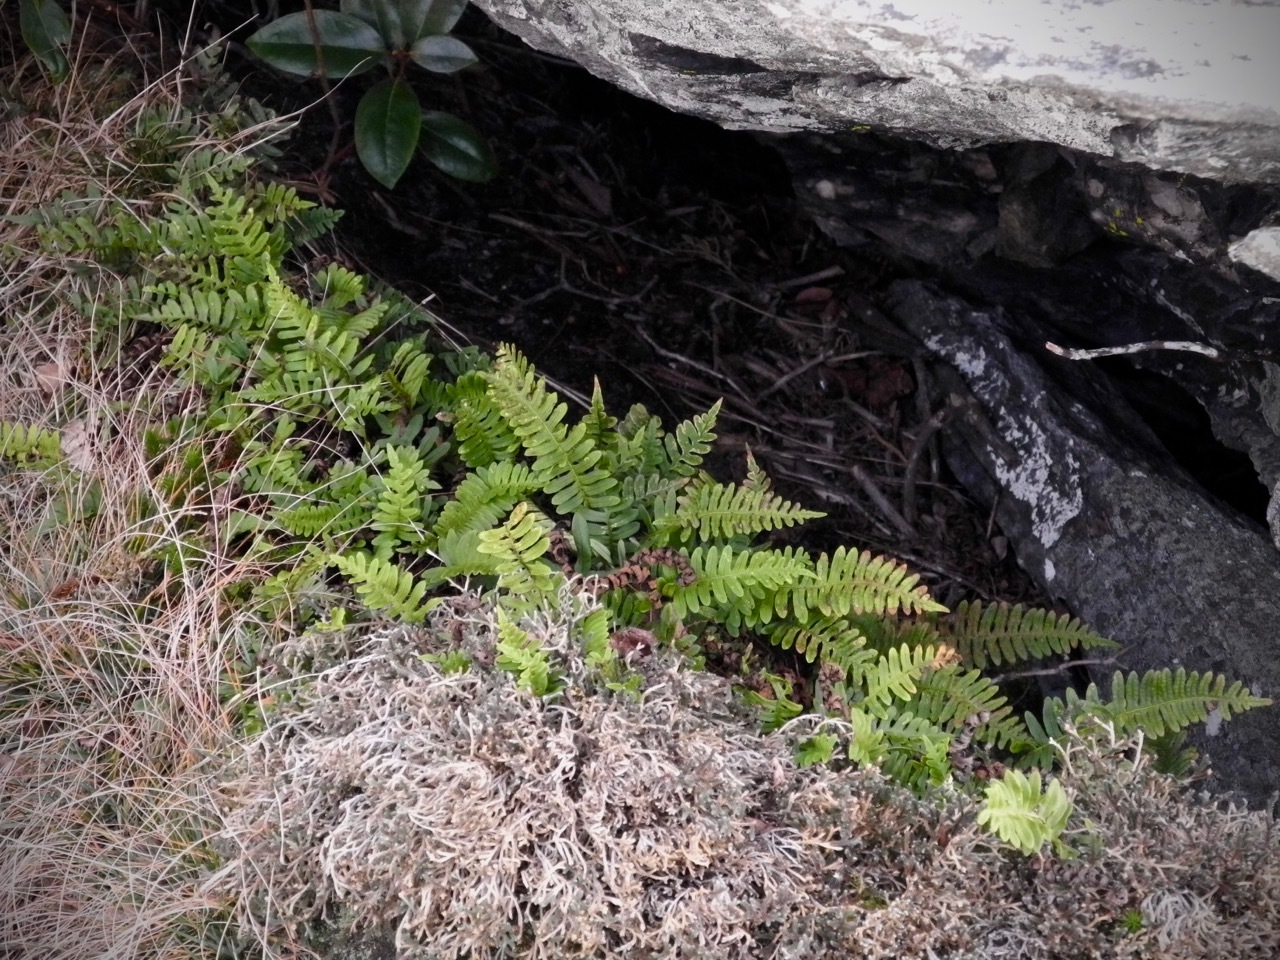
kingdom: Plantae
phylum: Tracheophyta
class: Polypodiopsida
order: Polypodiales
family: Polypodiaceae
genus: Polypodium
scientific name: Polypodium virginianum
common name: American wall fern
